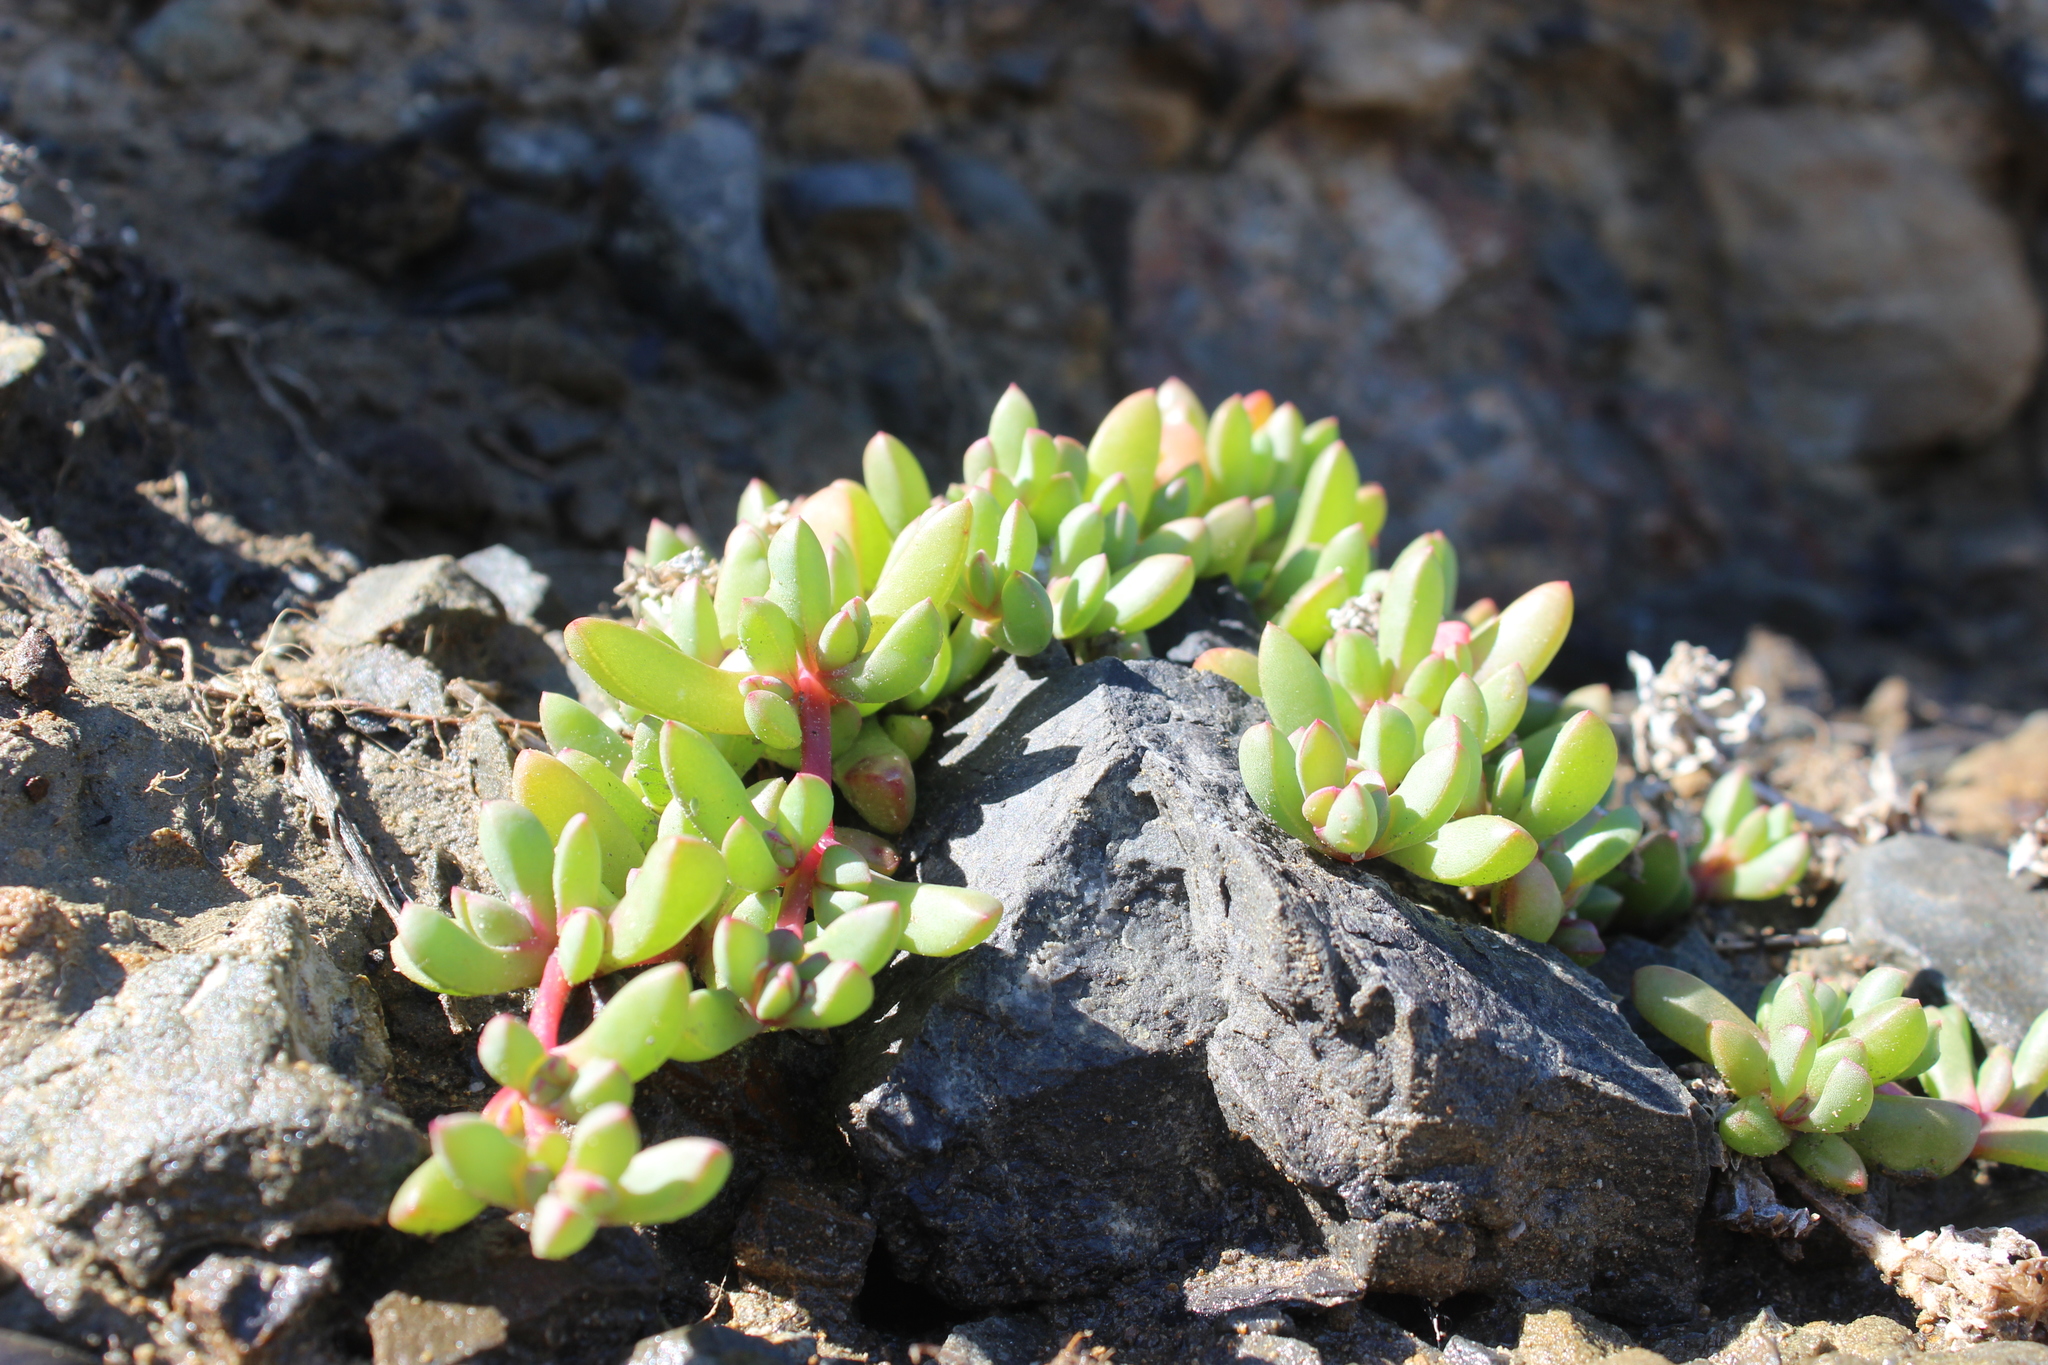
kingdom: Plantae
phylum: Tracheophyta
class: Magnoliopsida
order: Caryophyllales
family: Aizoaceae
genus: Disphyma
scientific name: Disphyma australe
